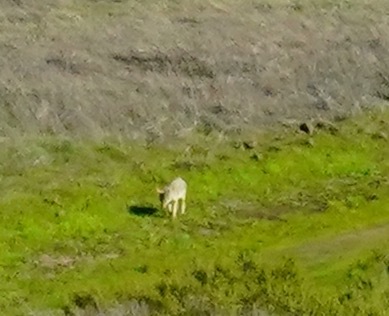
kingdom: Animalia
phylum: Chordata
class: Mammalia
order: Carnivora
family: Canidae
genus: Canis
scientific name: Canis latrans
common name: Coyote
